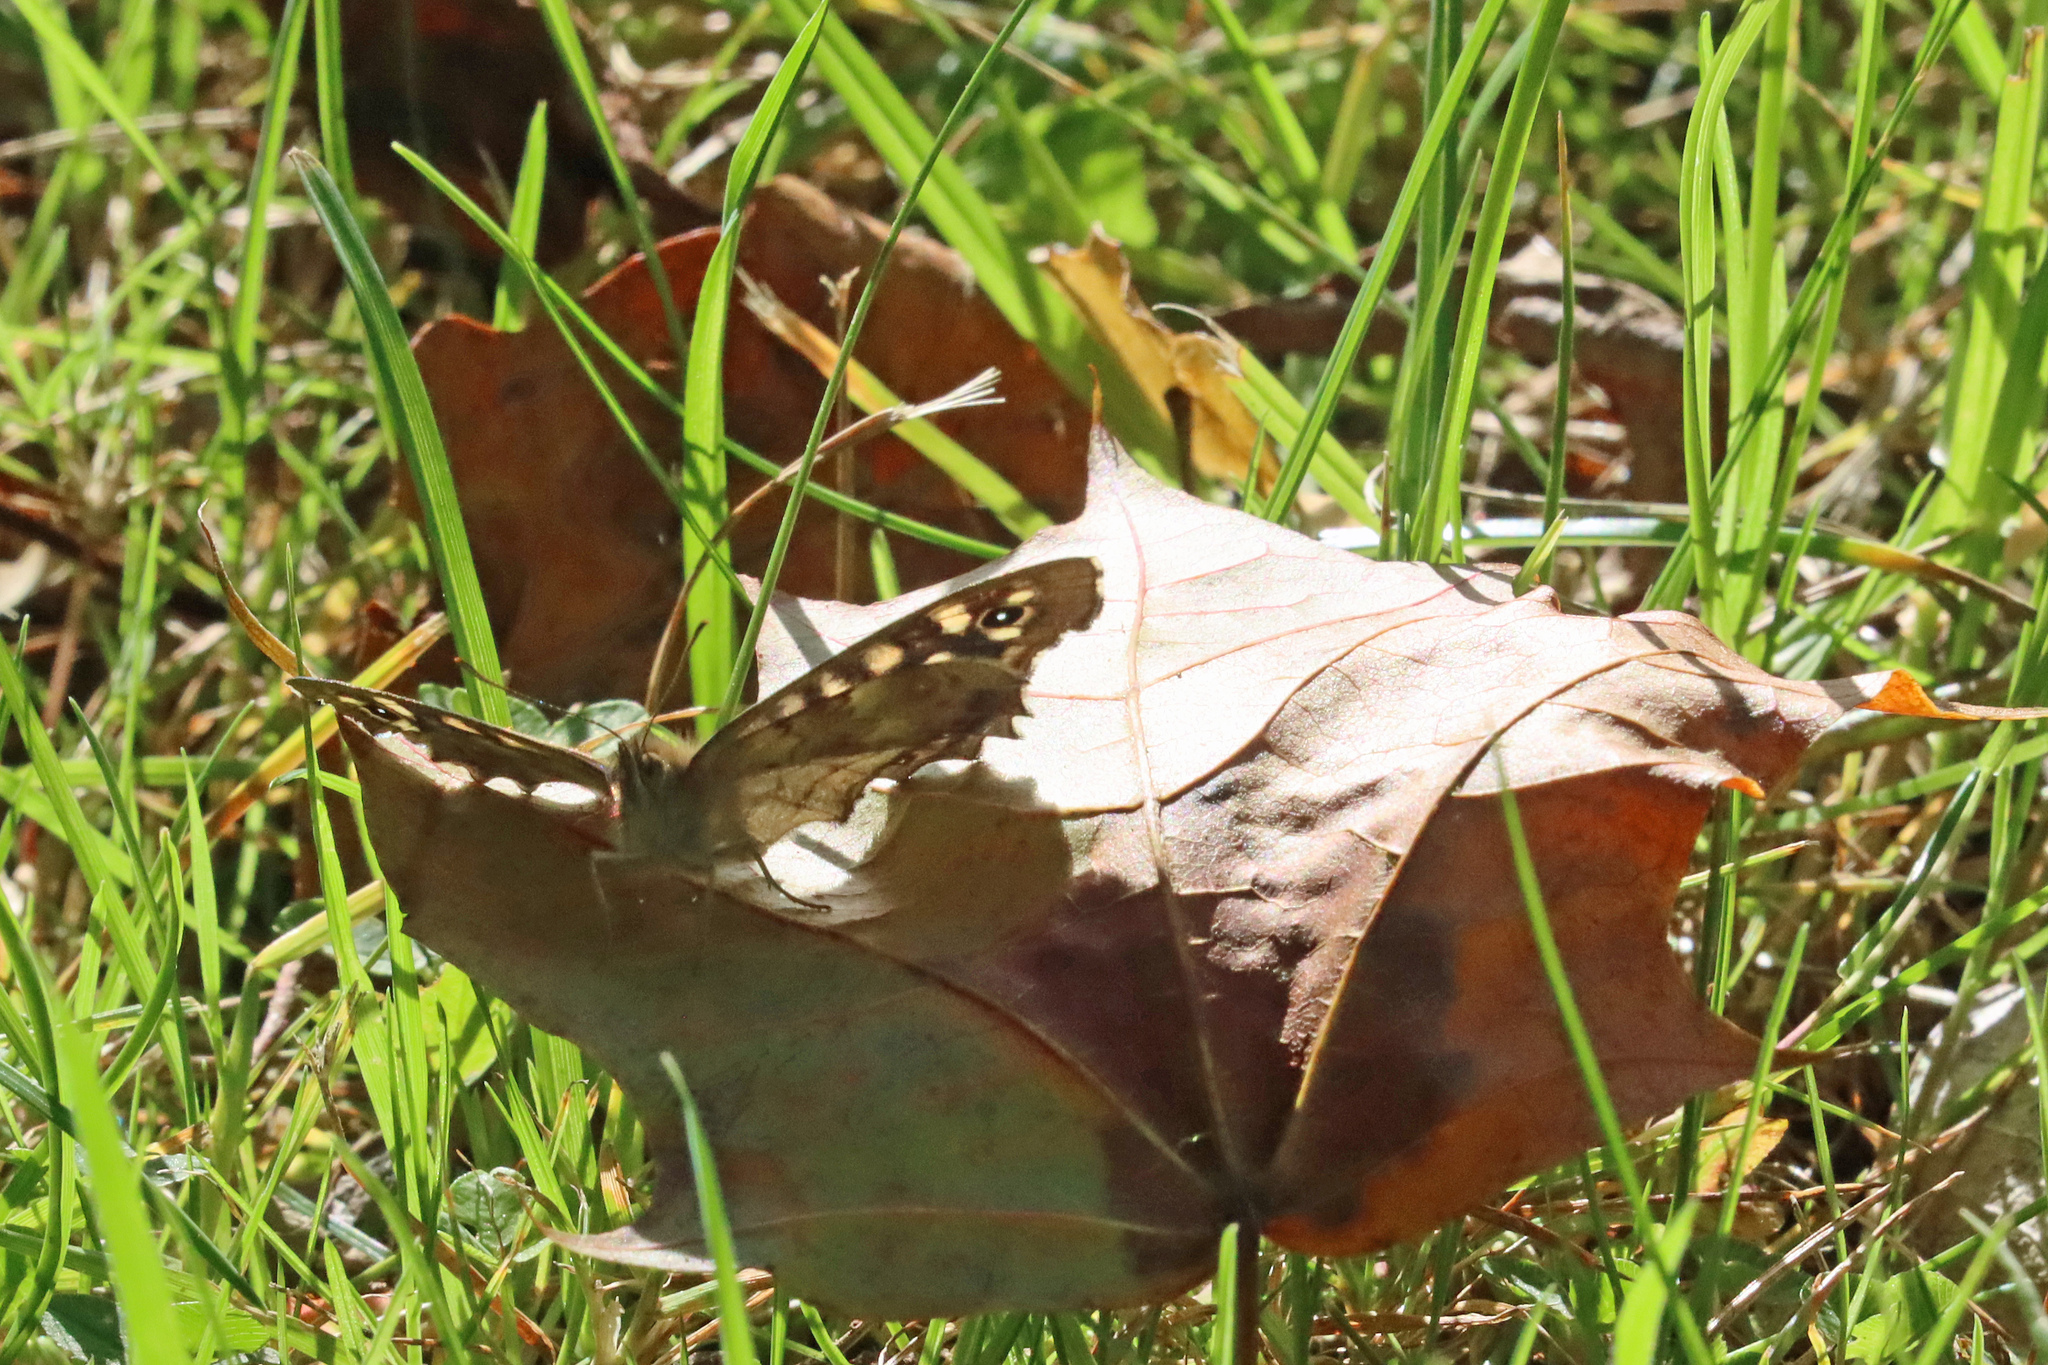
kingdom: Animalia
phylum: Arthropoda
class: Insecta
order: Lepidoptera
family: Nymphalidae
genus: Pararge
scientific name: Pararge aegeria
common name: Speckled wood
